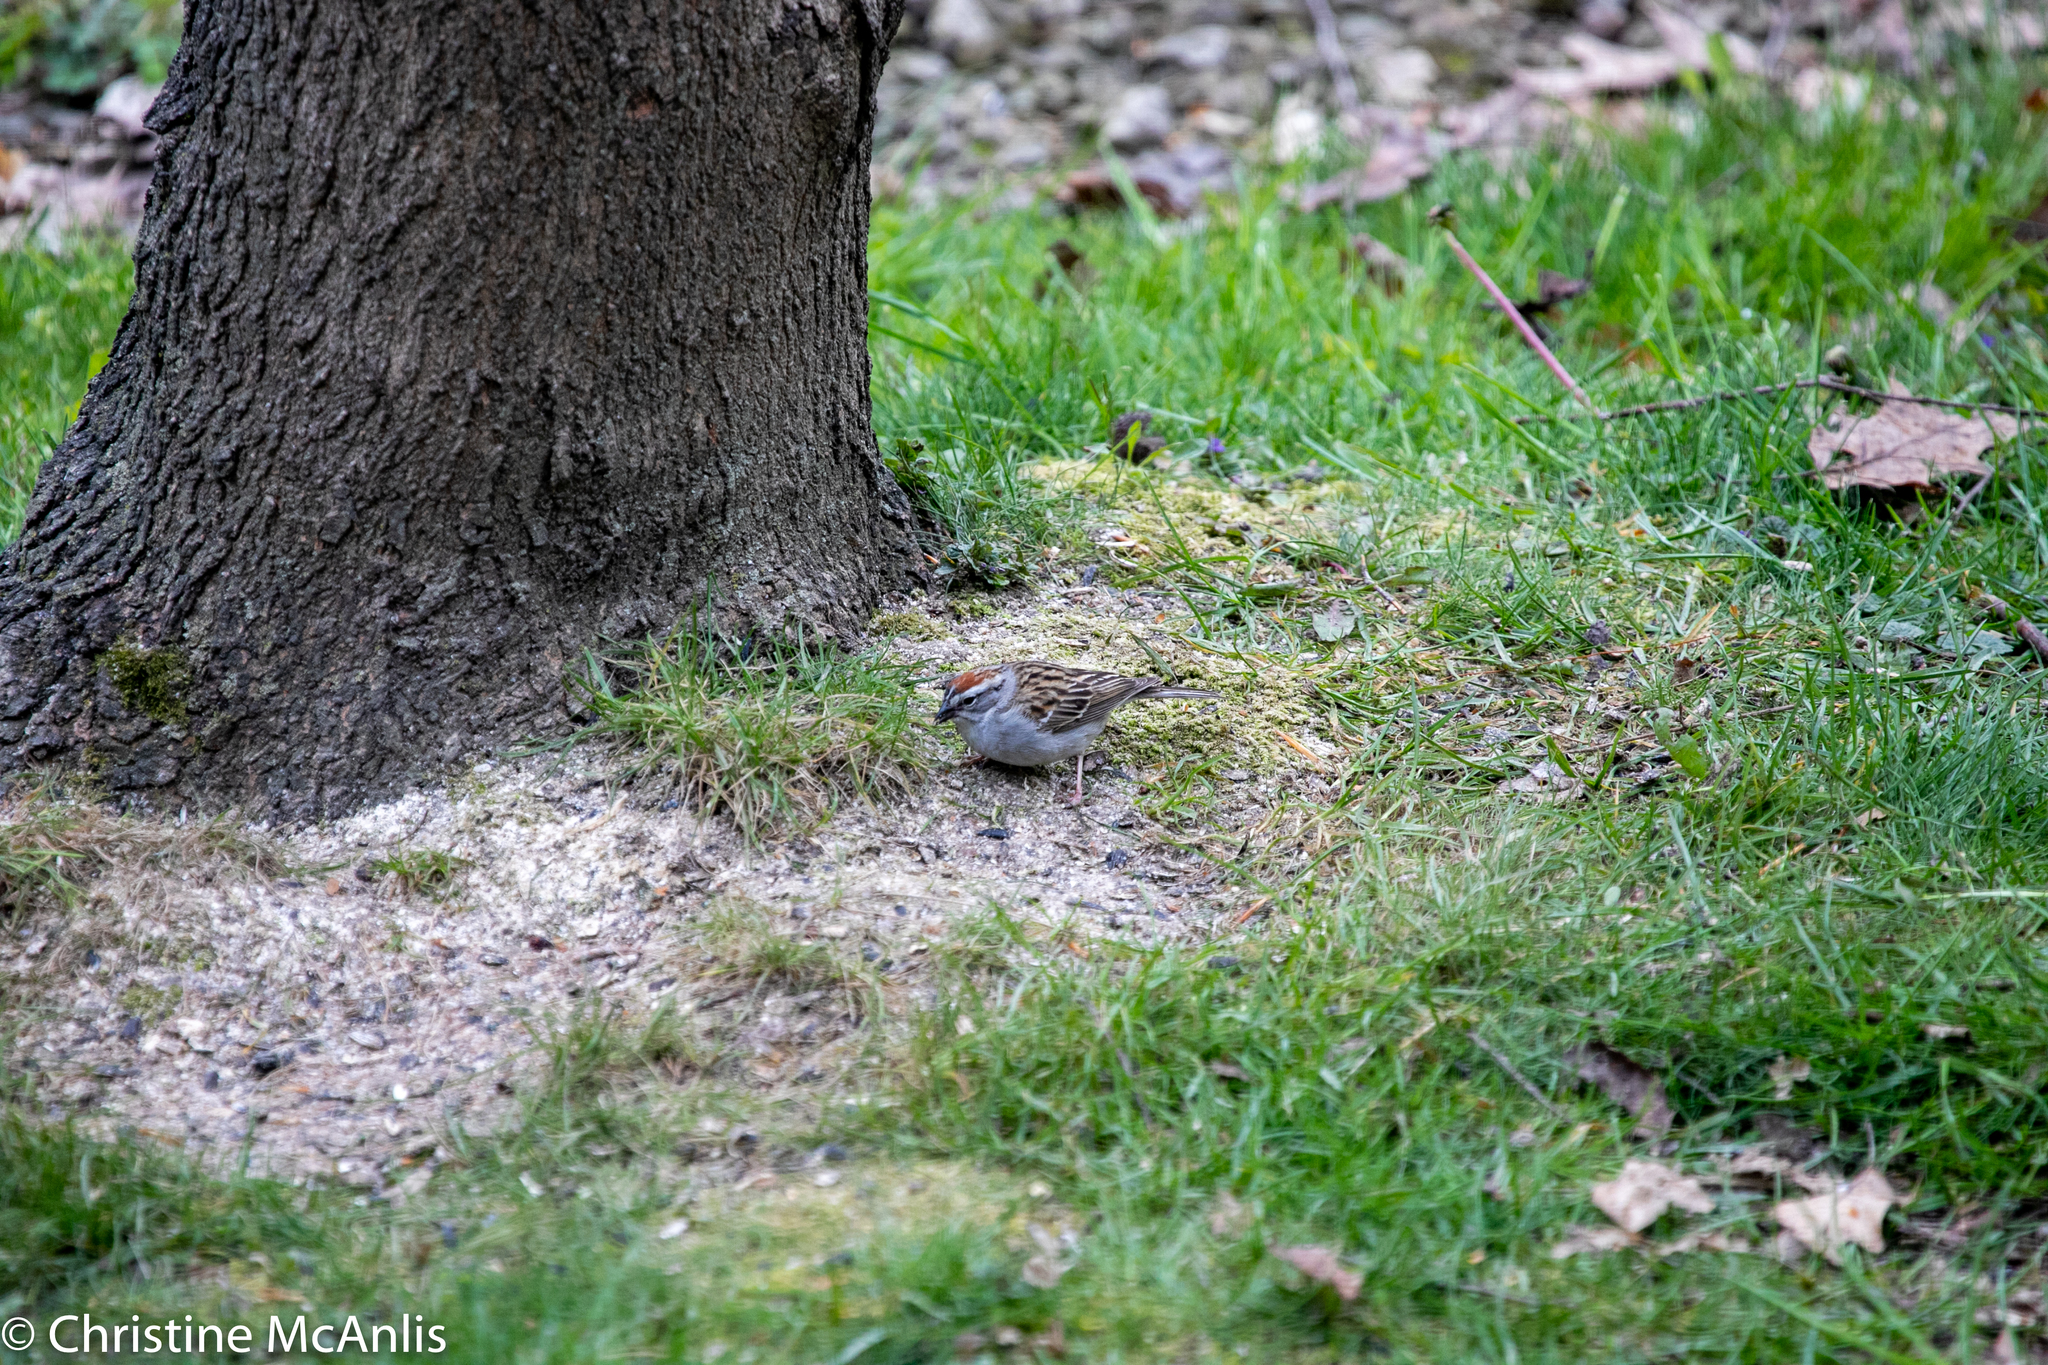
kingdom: Animalia
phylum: Chordata
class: Aves
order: Passeriformes
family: Passerellidae
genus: Spizella
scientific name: Spizella passerina
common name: Chipping sparrow
